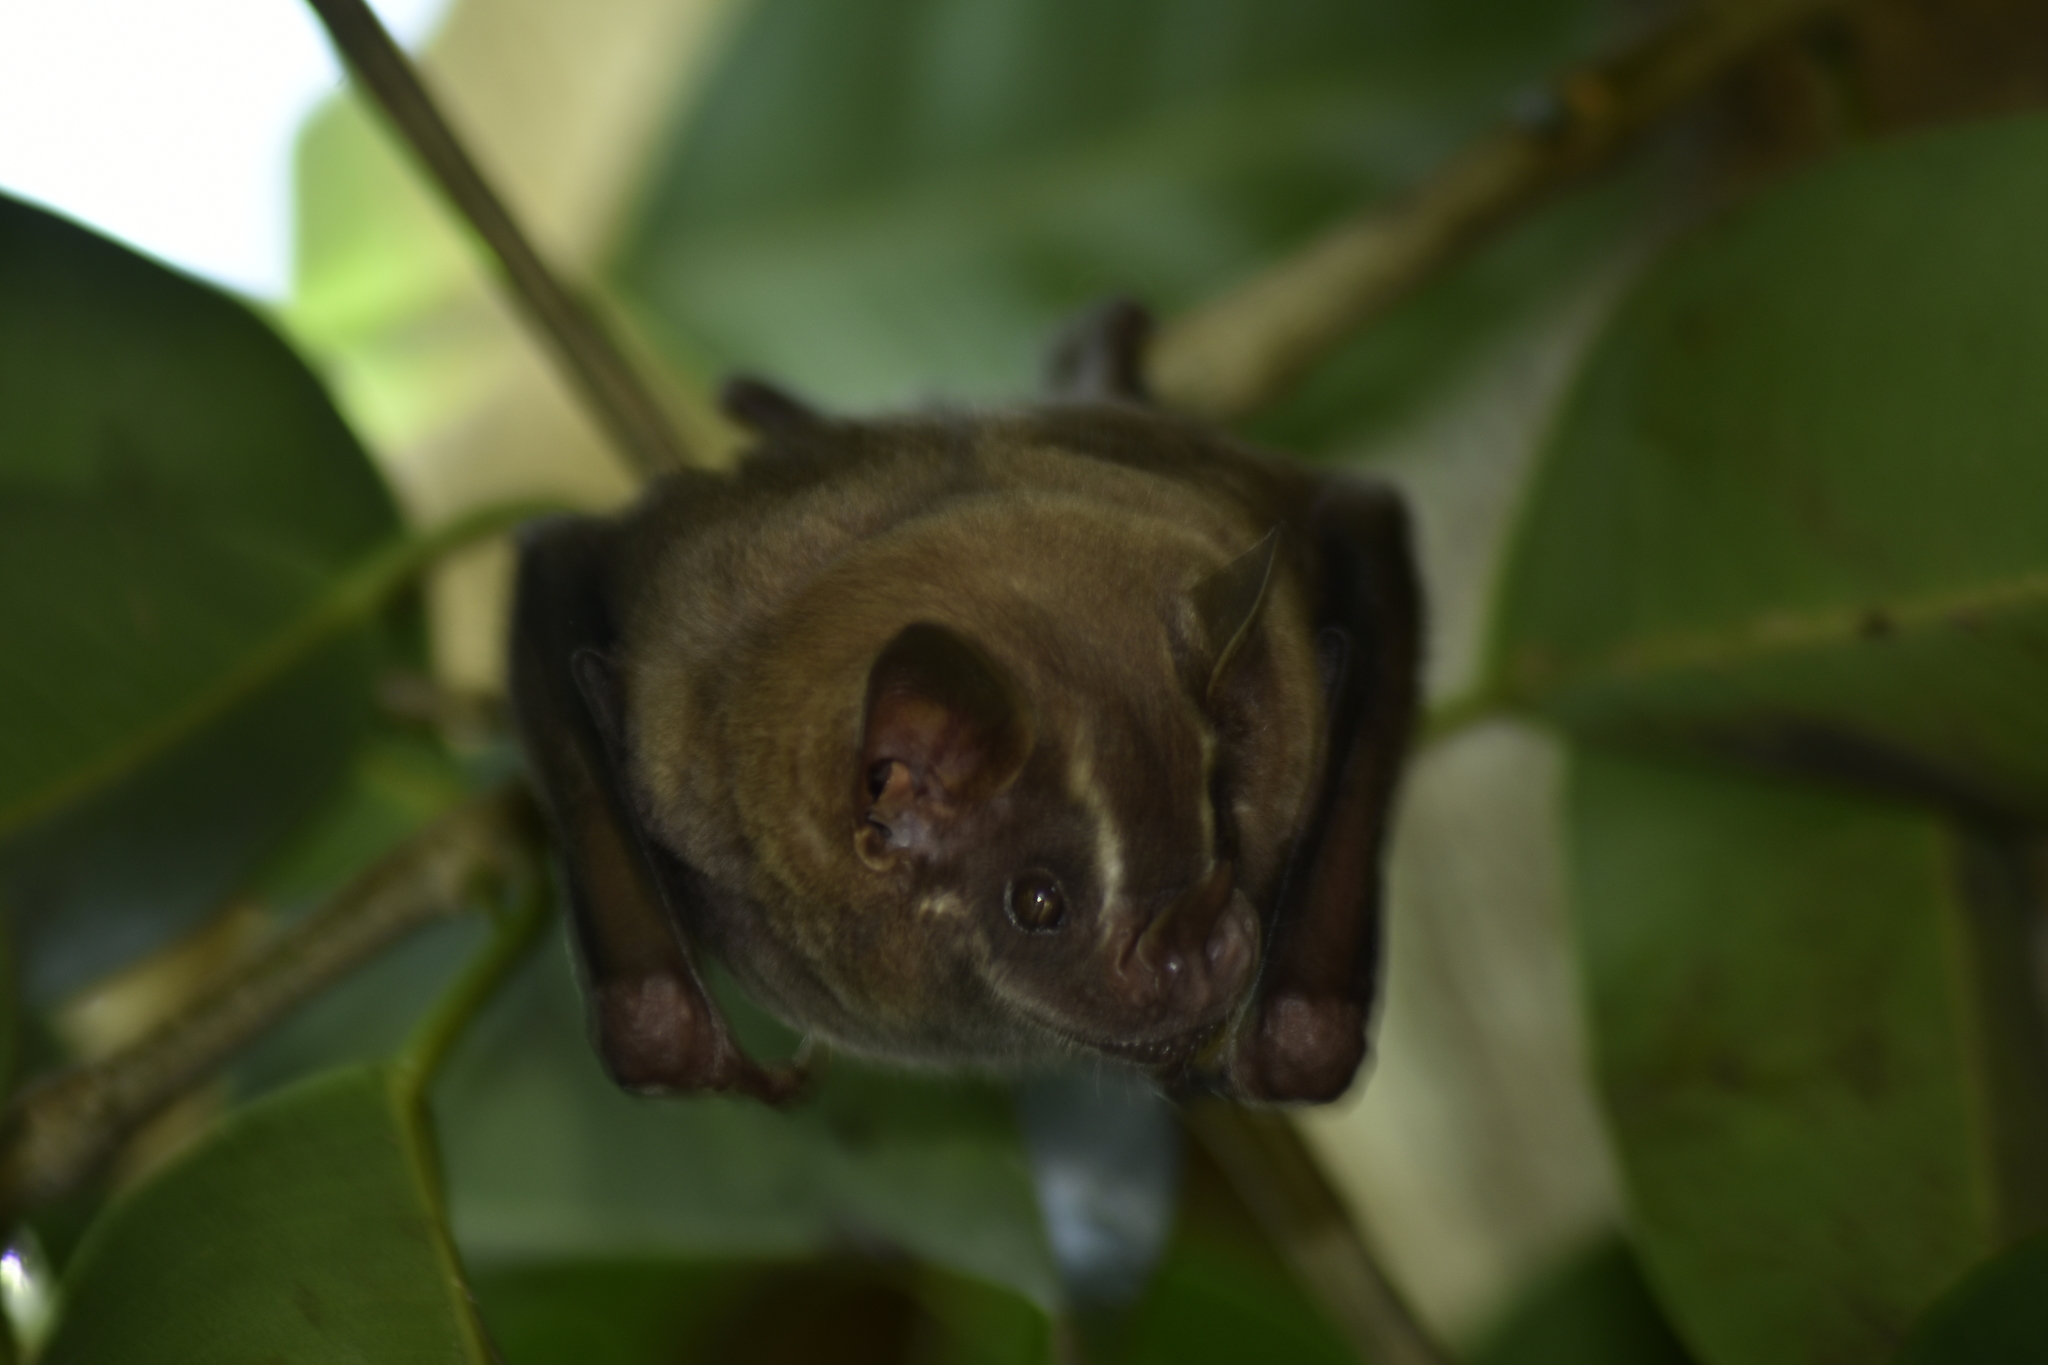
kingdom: Animalia
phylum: Chordata
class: Mammalia
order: Chiroptera
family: Phyllostomidae
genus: Artibeus
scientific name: Artibeus lituratus
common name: Great fruit-eating bat
